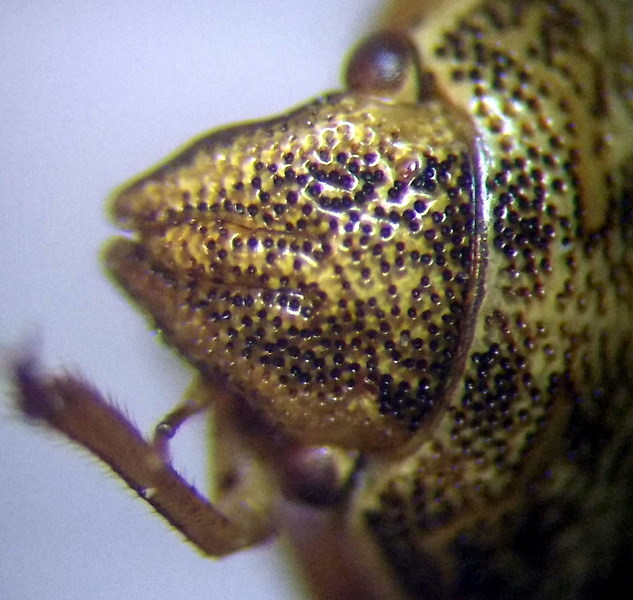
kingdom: Animalia
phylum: Arthropoda
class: Insecta
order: Hemiptera
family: Pentatomidae
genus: Neottiglossa
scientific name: Neottiglossa leporina
